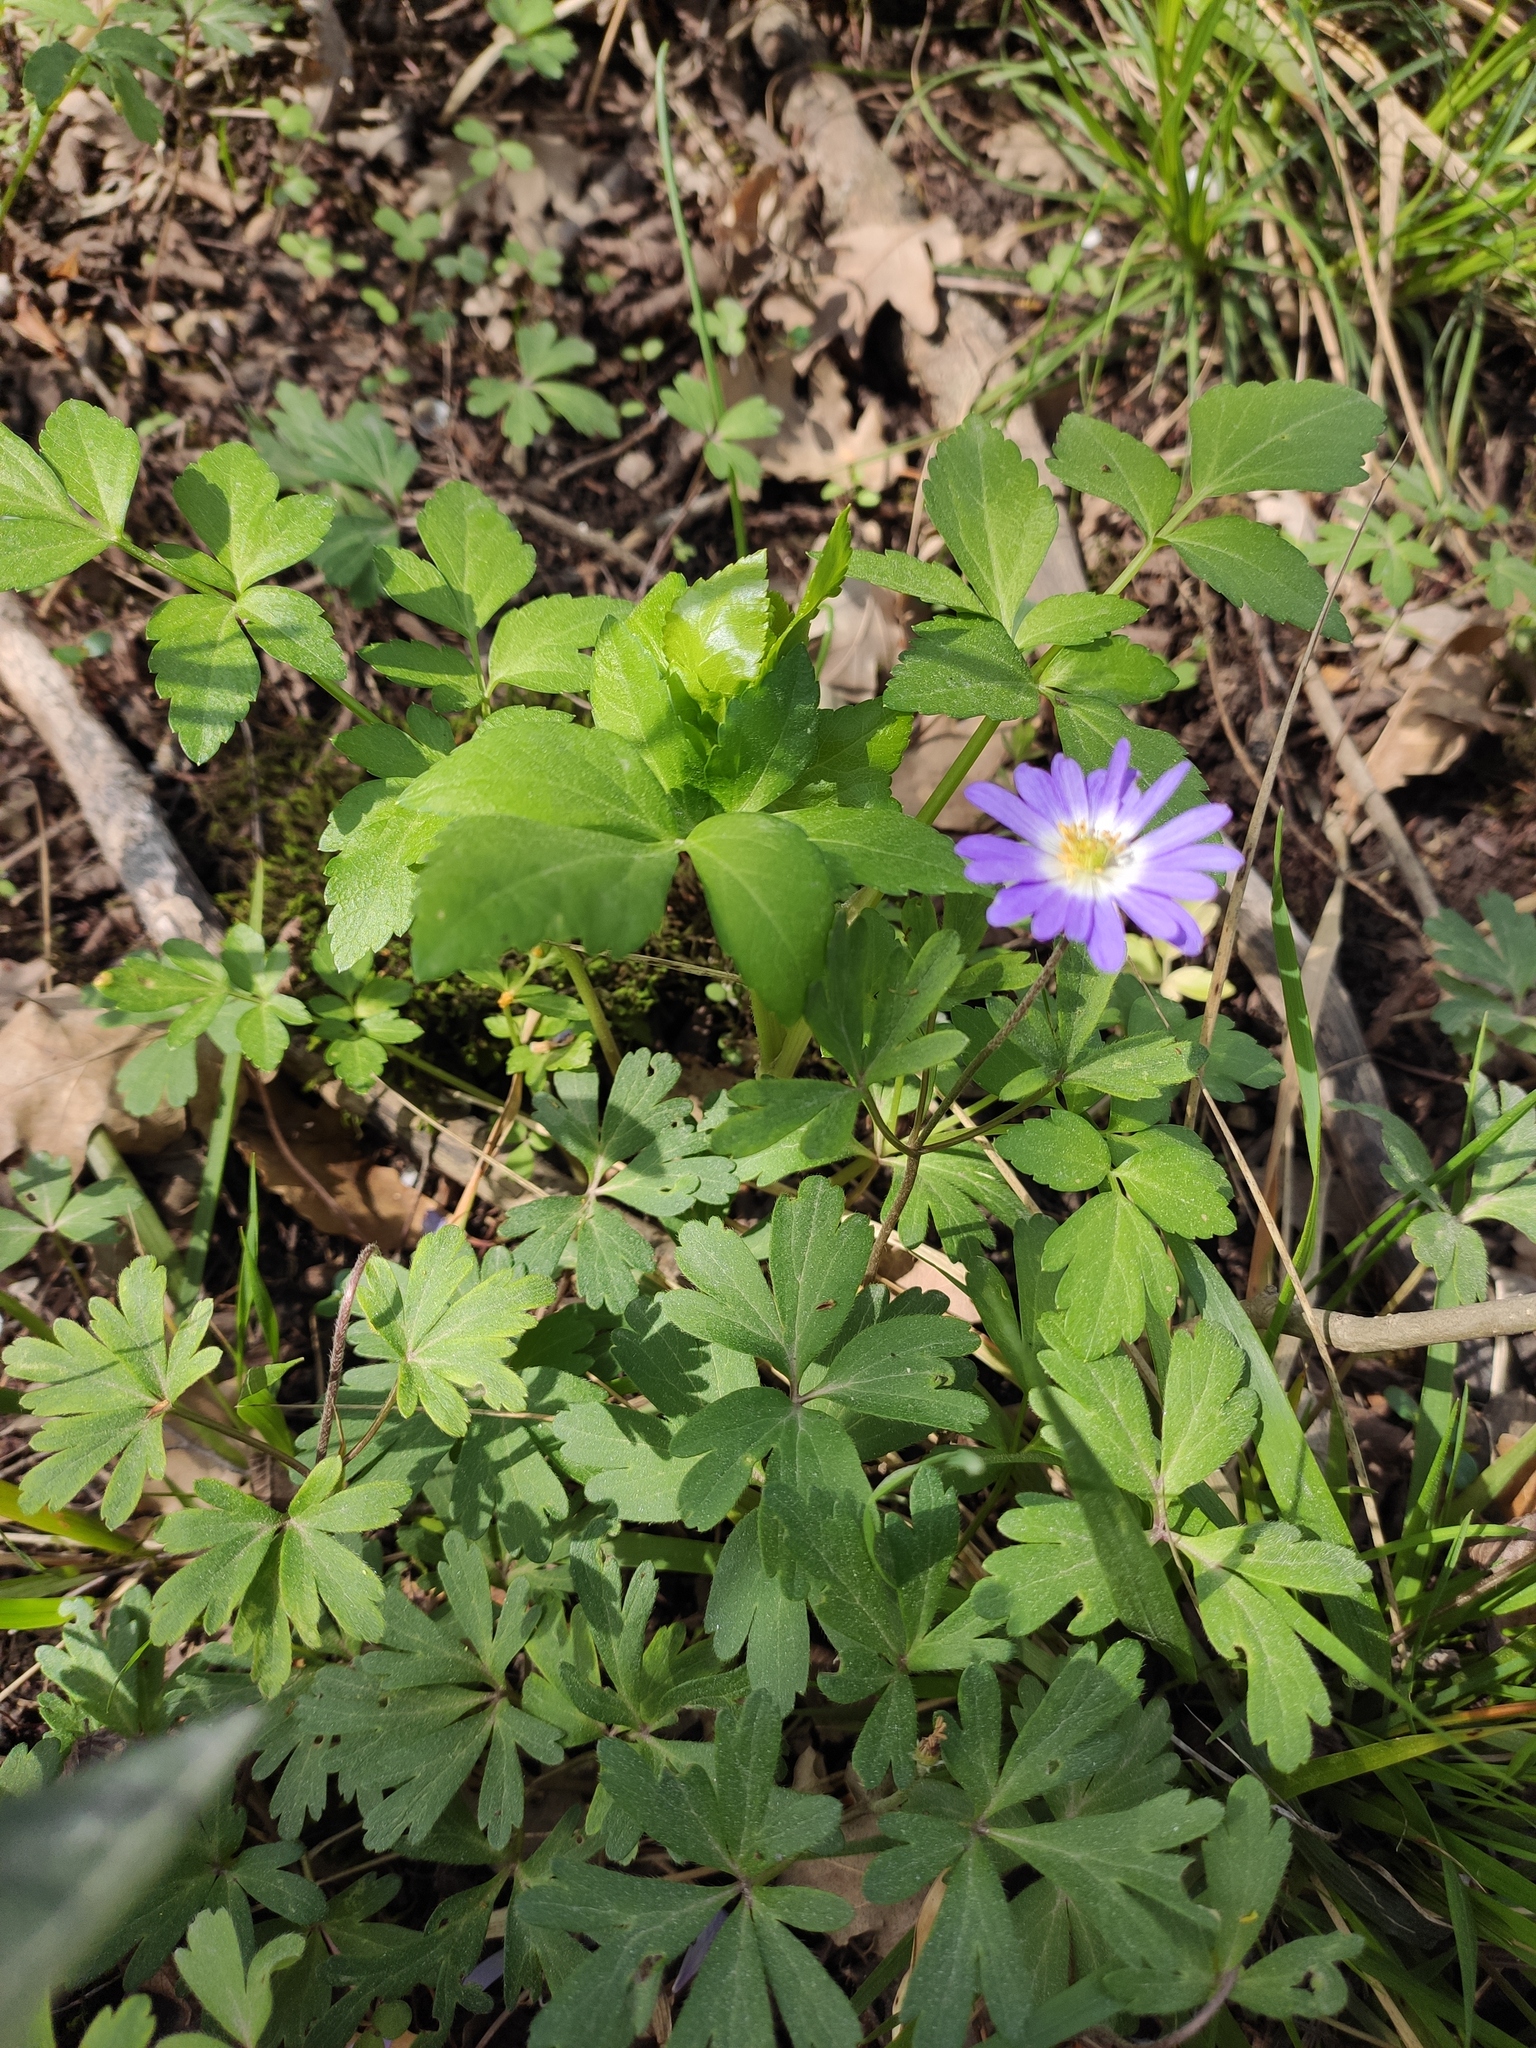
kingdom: Plantae
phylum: Tracheophyta
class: Magnoliopsida
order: Ranunculales
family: Ranunculaceae
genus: Anemone
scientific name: Anemone blanda
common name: Balkan anemone
